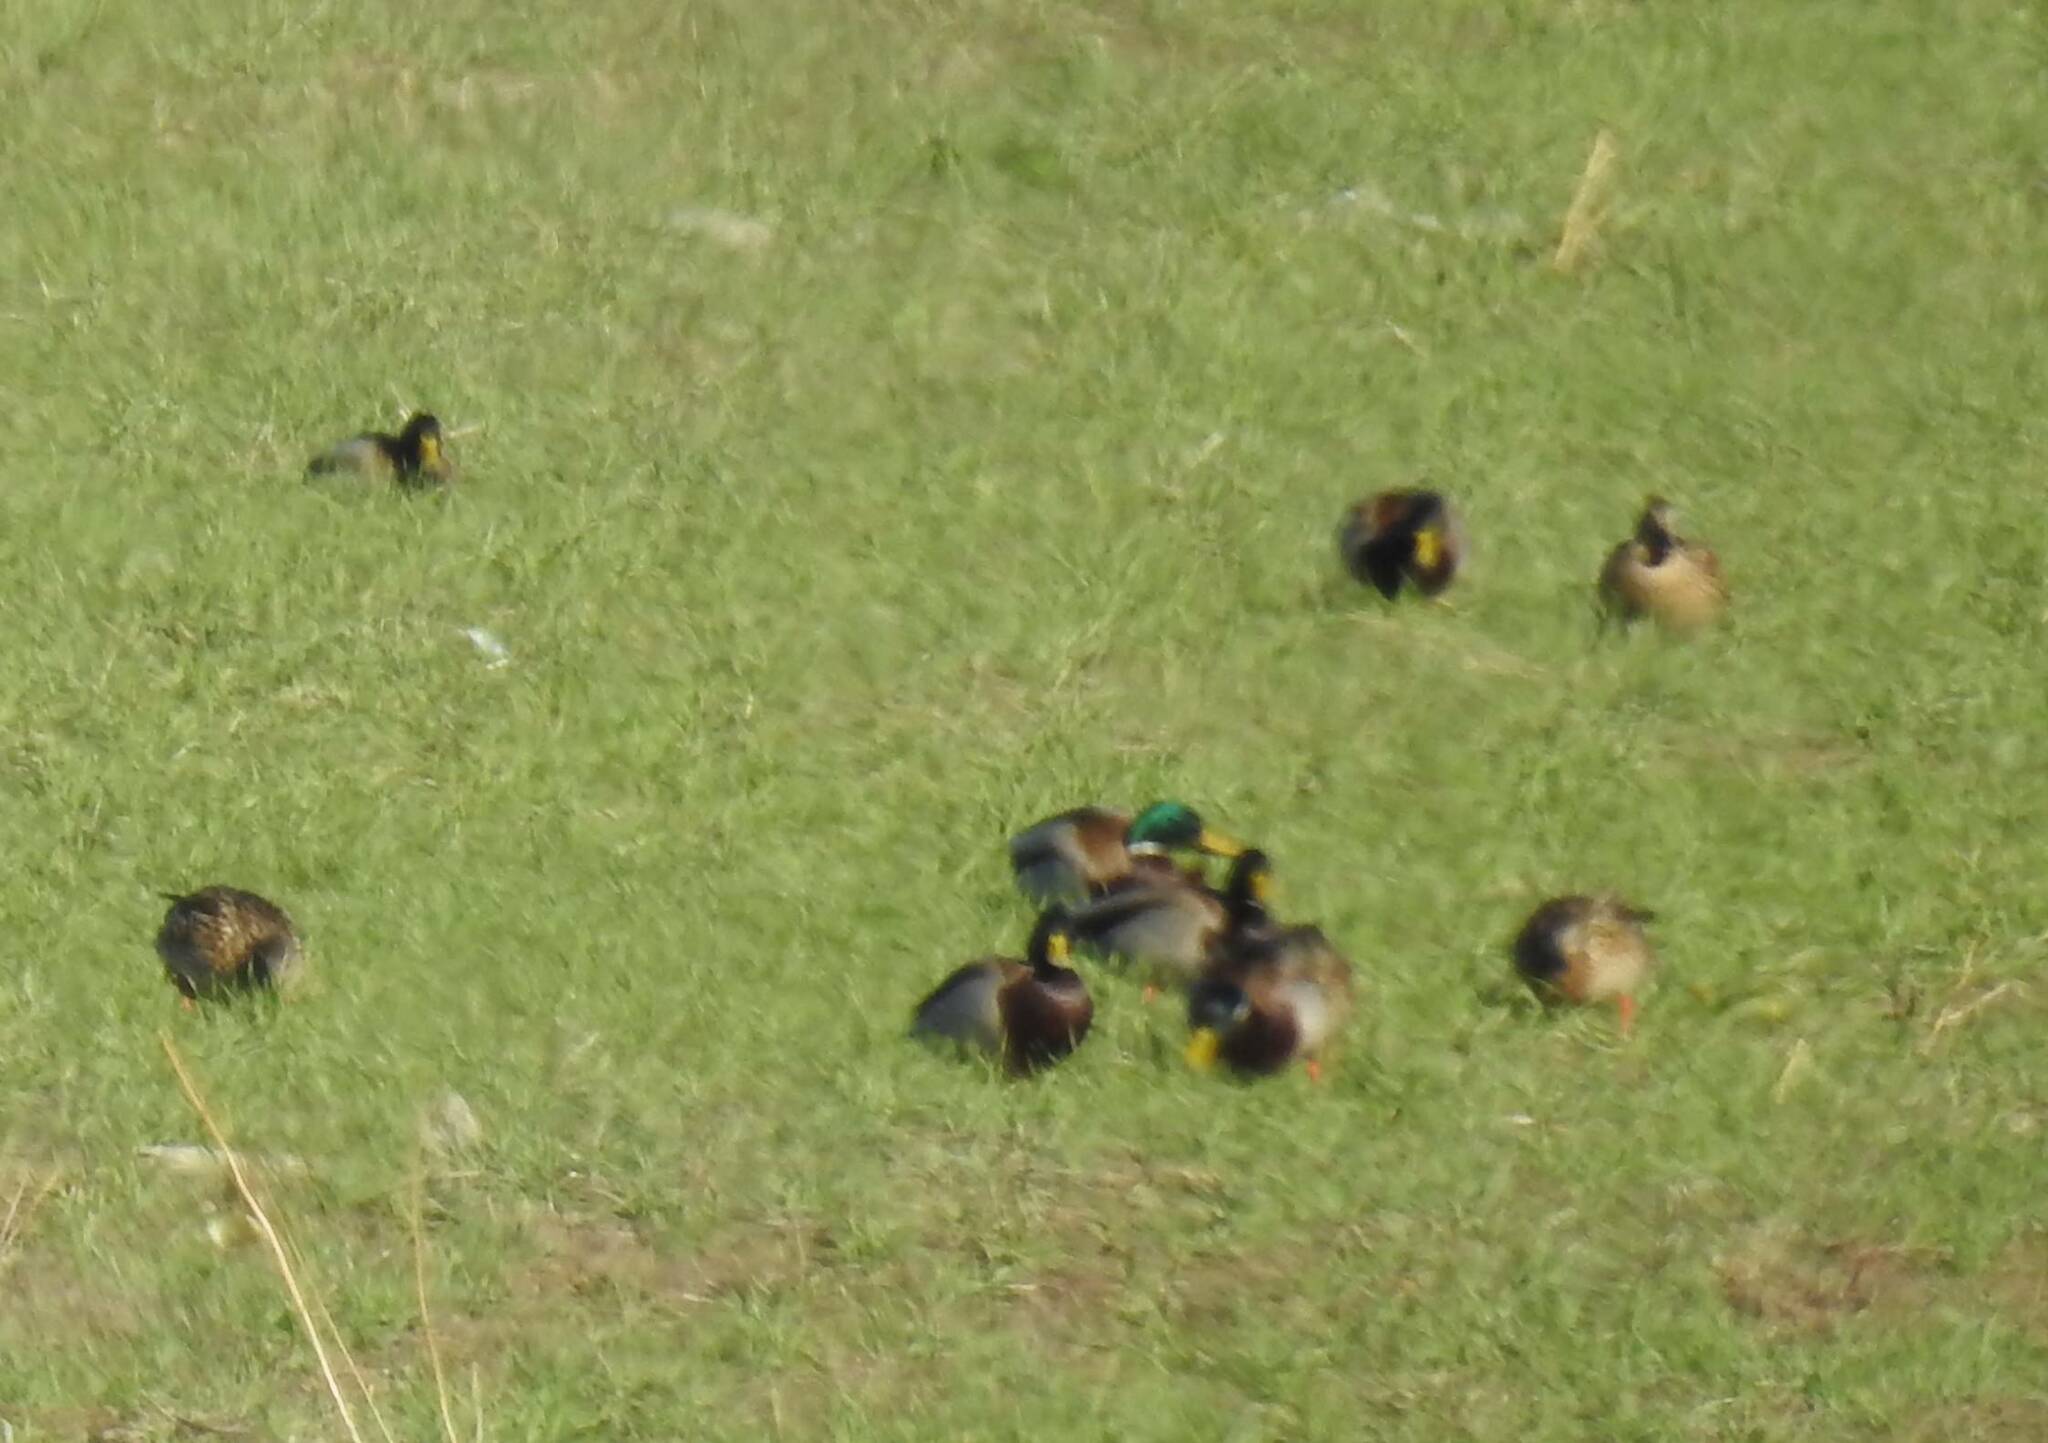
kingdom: Animalia
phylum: Chordata
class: Aves
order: Anseriformes
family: Anatidae
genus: Anas
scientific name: Anas platyrhynchos
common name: Mallard
